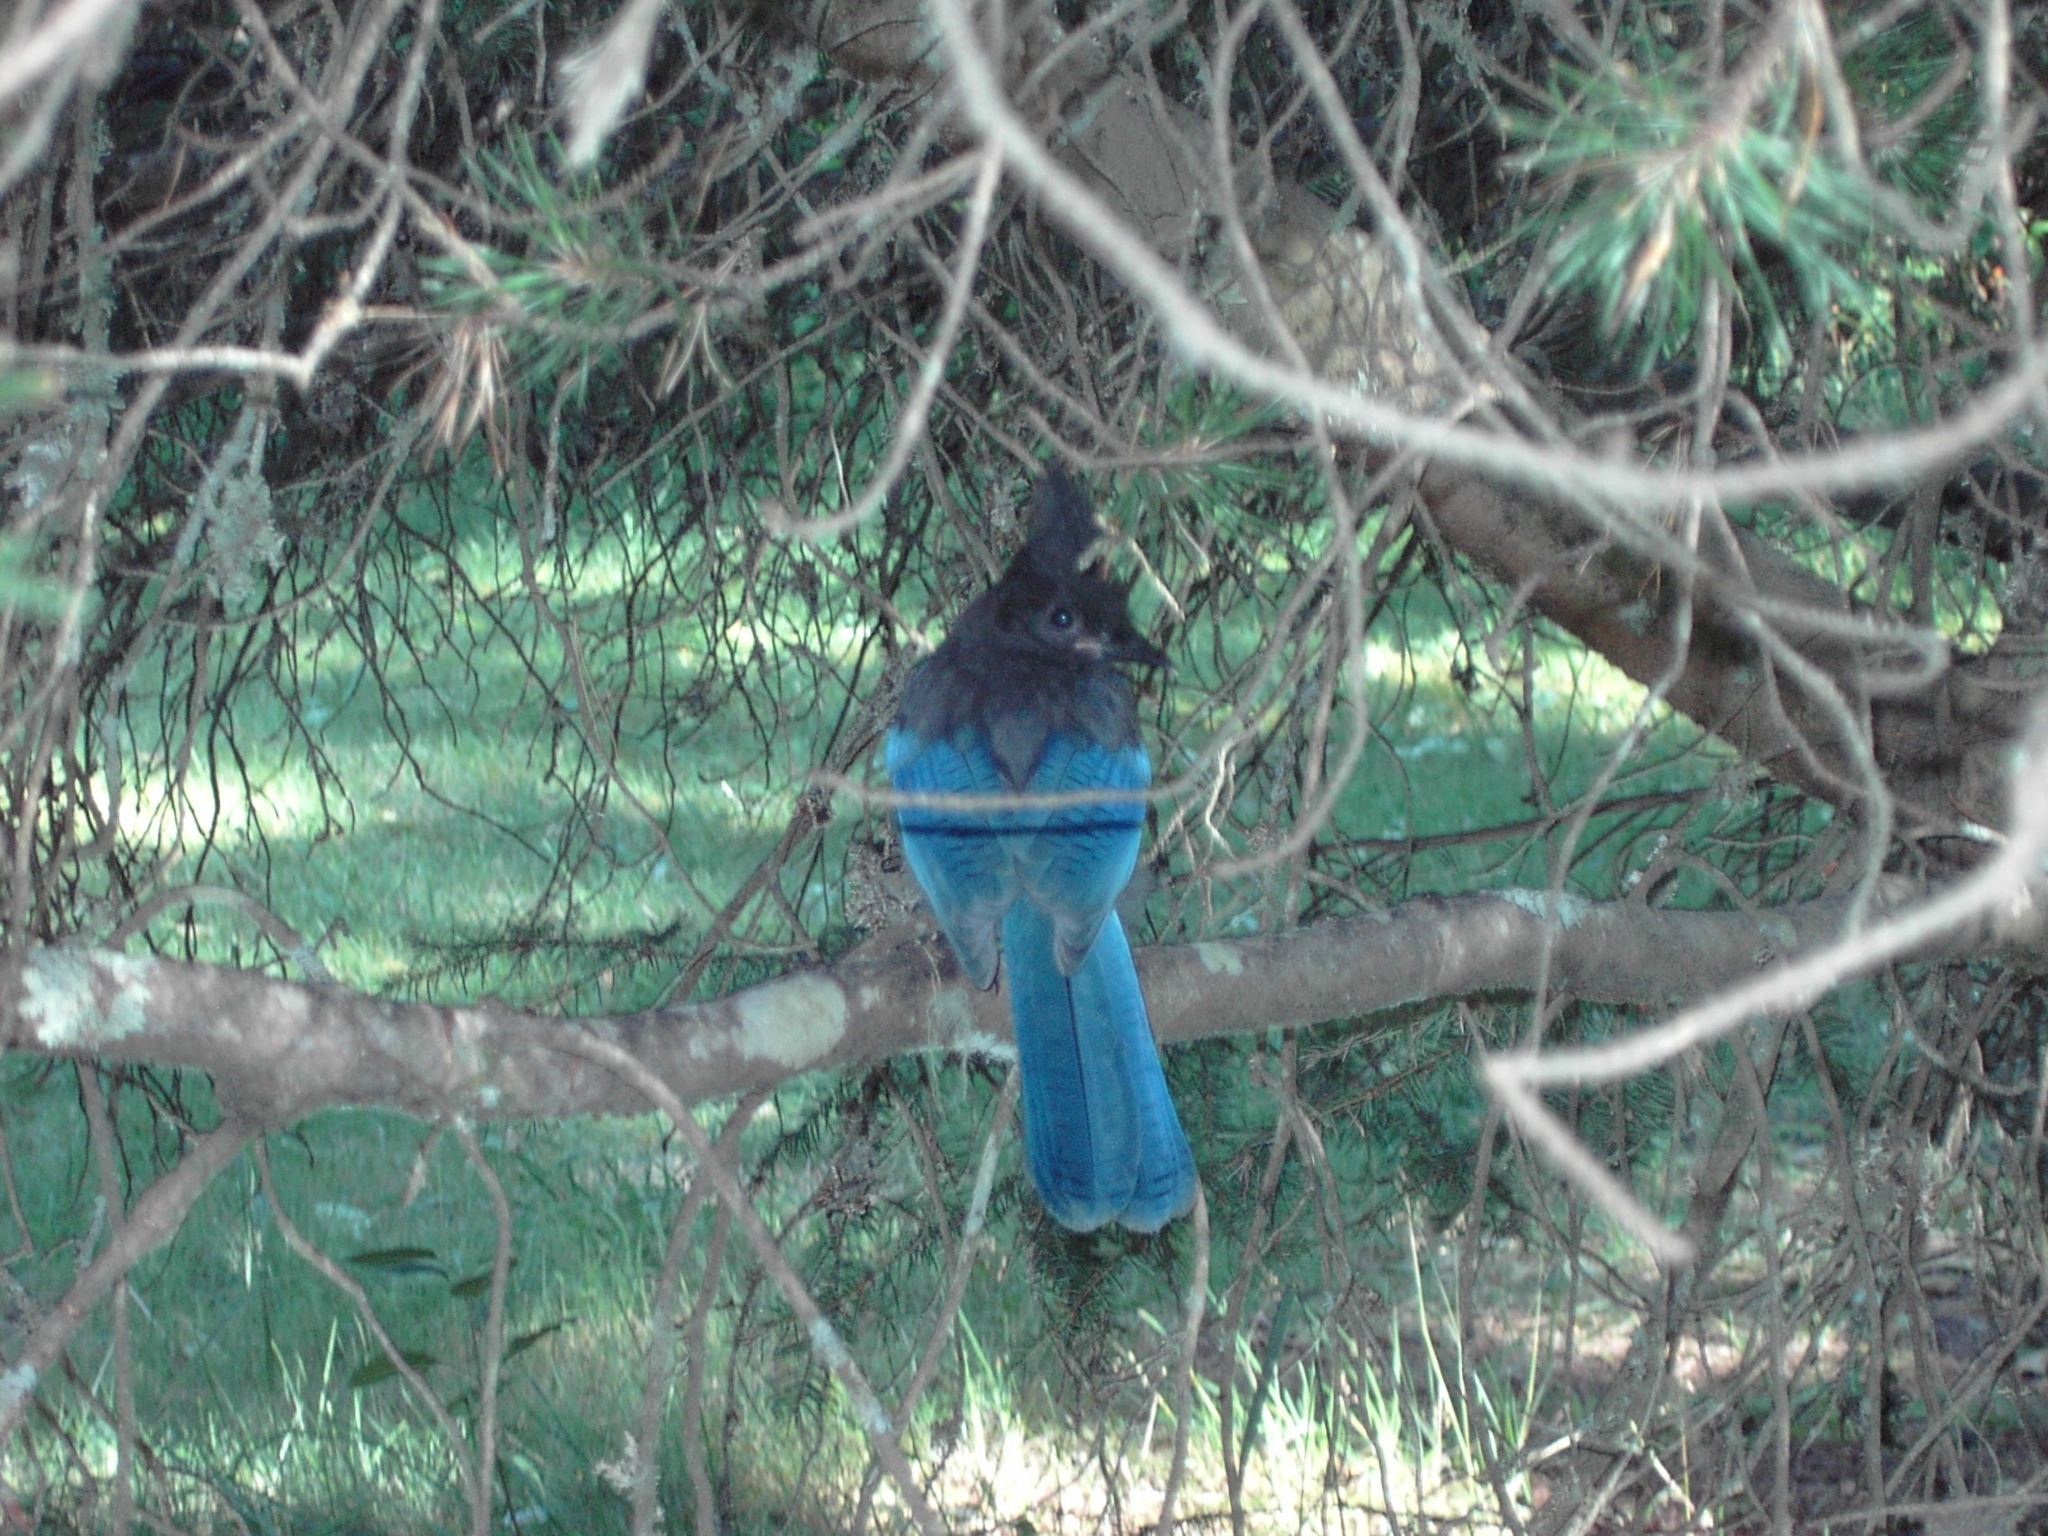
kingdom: Animalia
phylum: Chordata
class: Aves
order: Passeriformes
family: Corvidae
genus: Cyanocitta
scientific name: Cyanocitta stelleri
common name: Steller's jay
